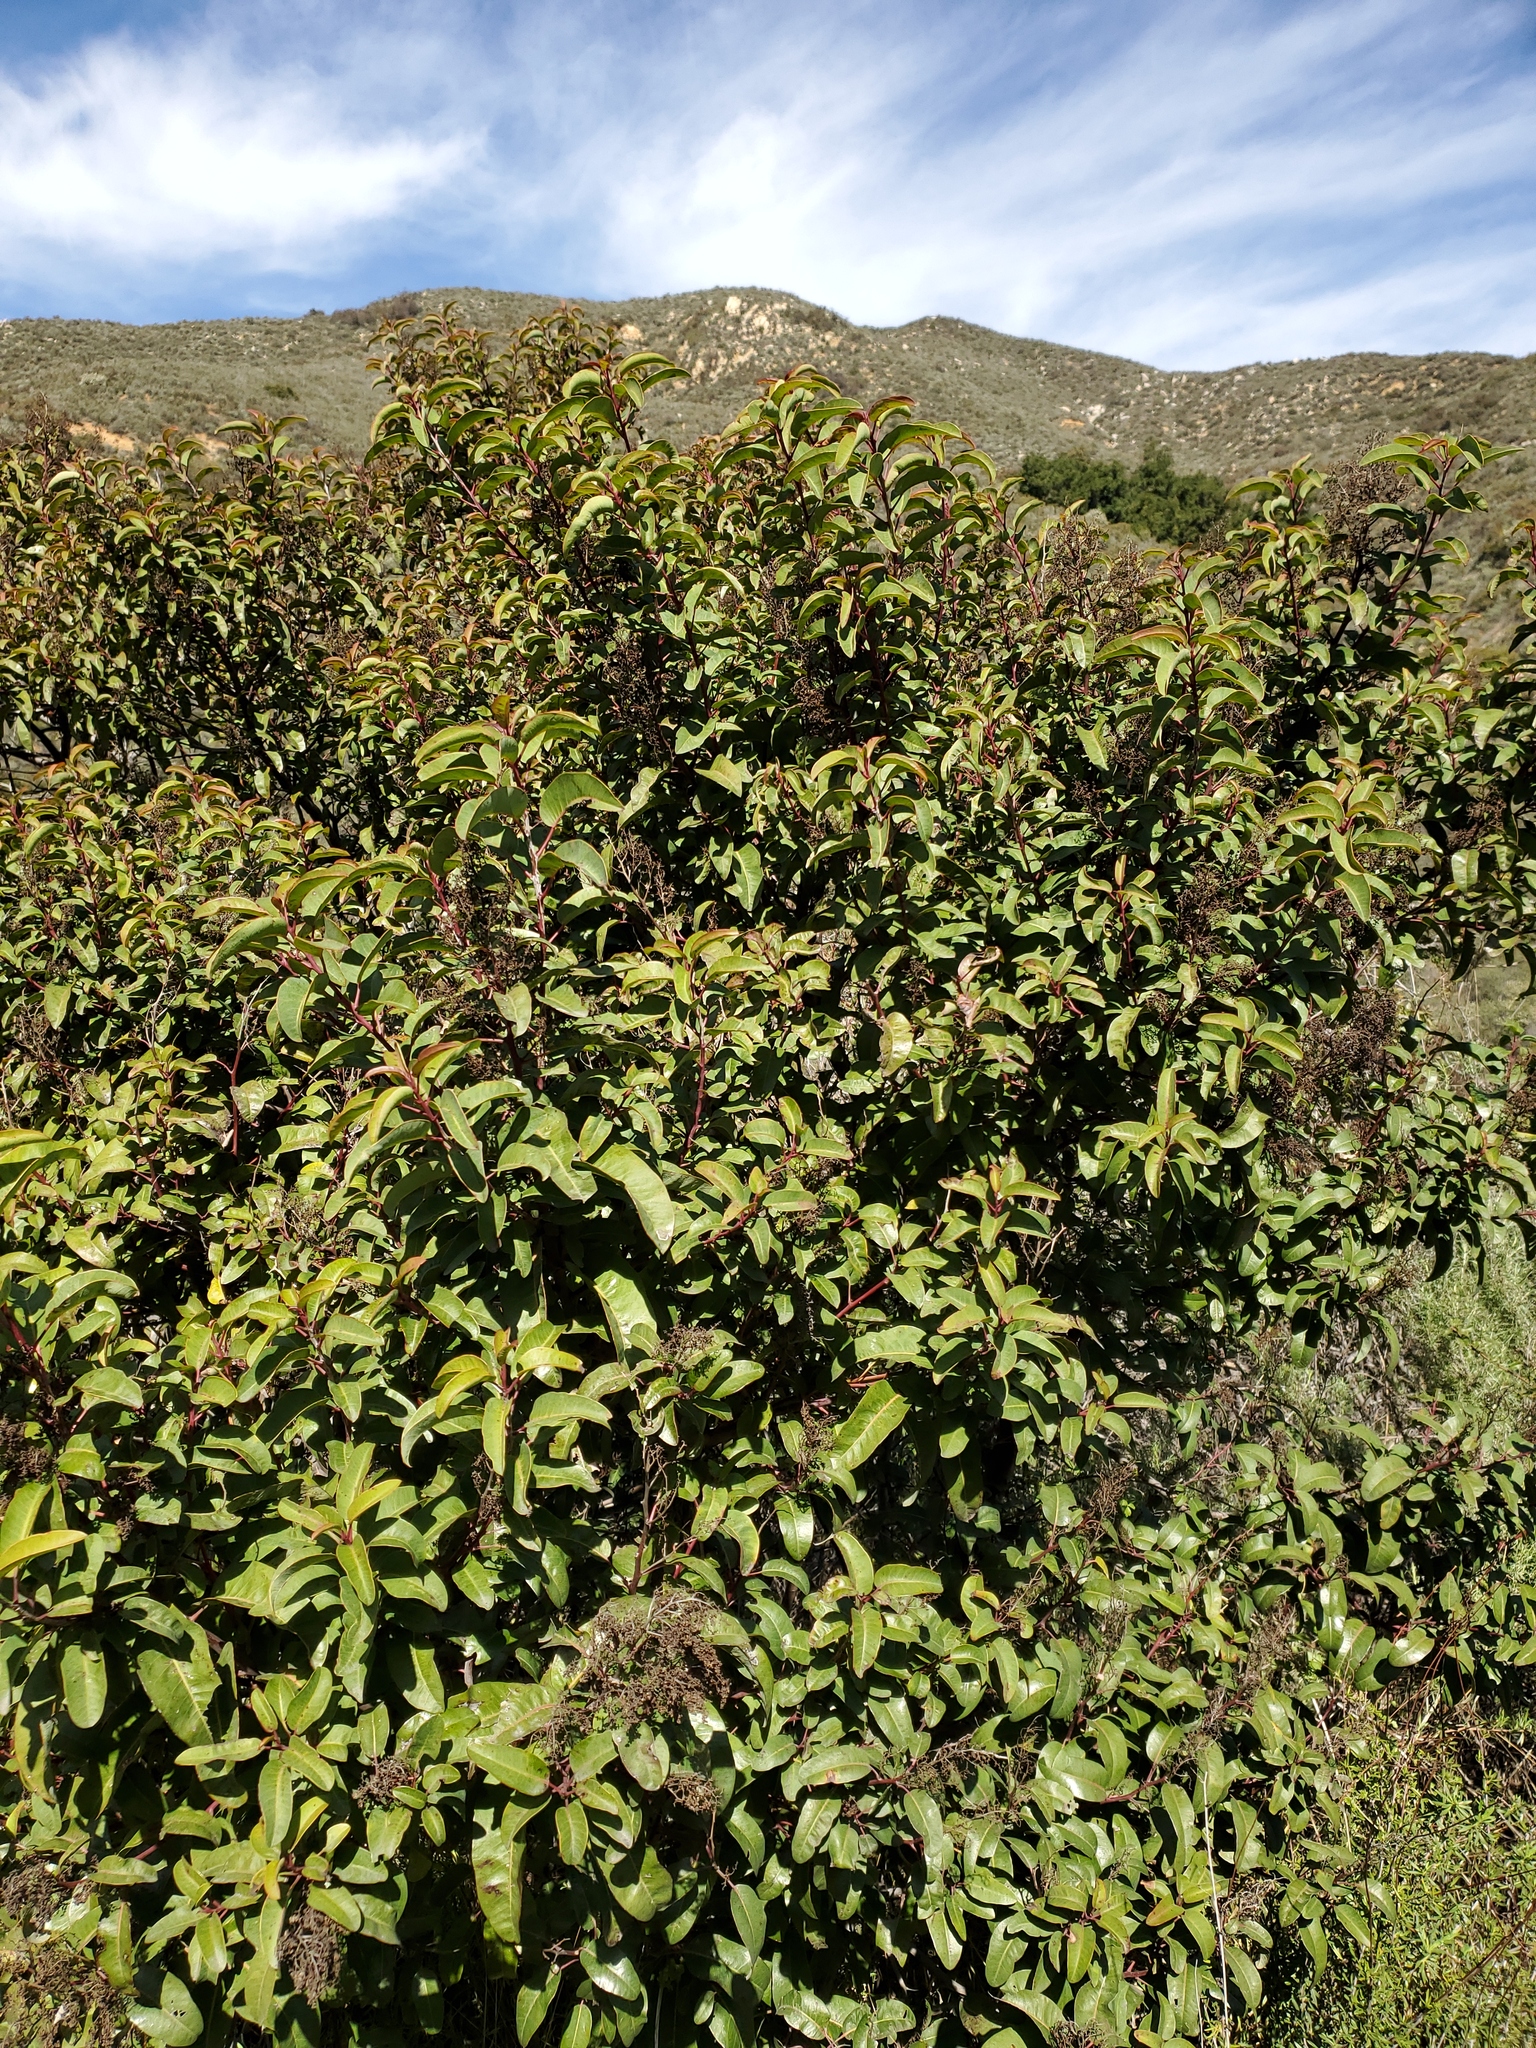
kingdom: Plantae
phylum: Tracheophyta
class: Magnoliopsida
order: Sapindales
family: Anacardiaceae
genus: Malosma
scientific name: Malosma laurina
